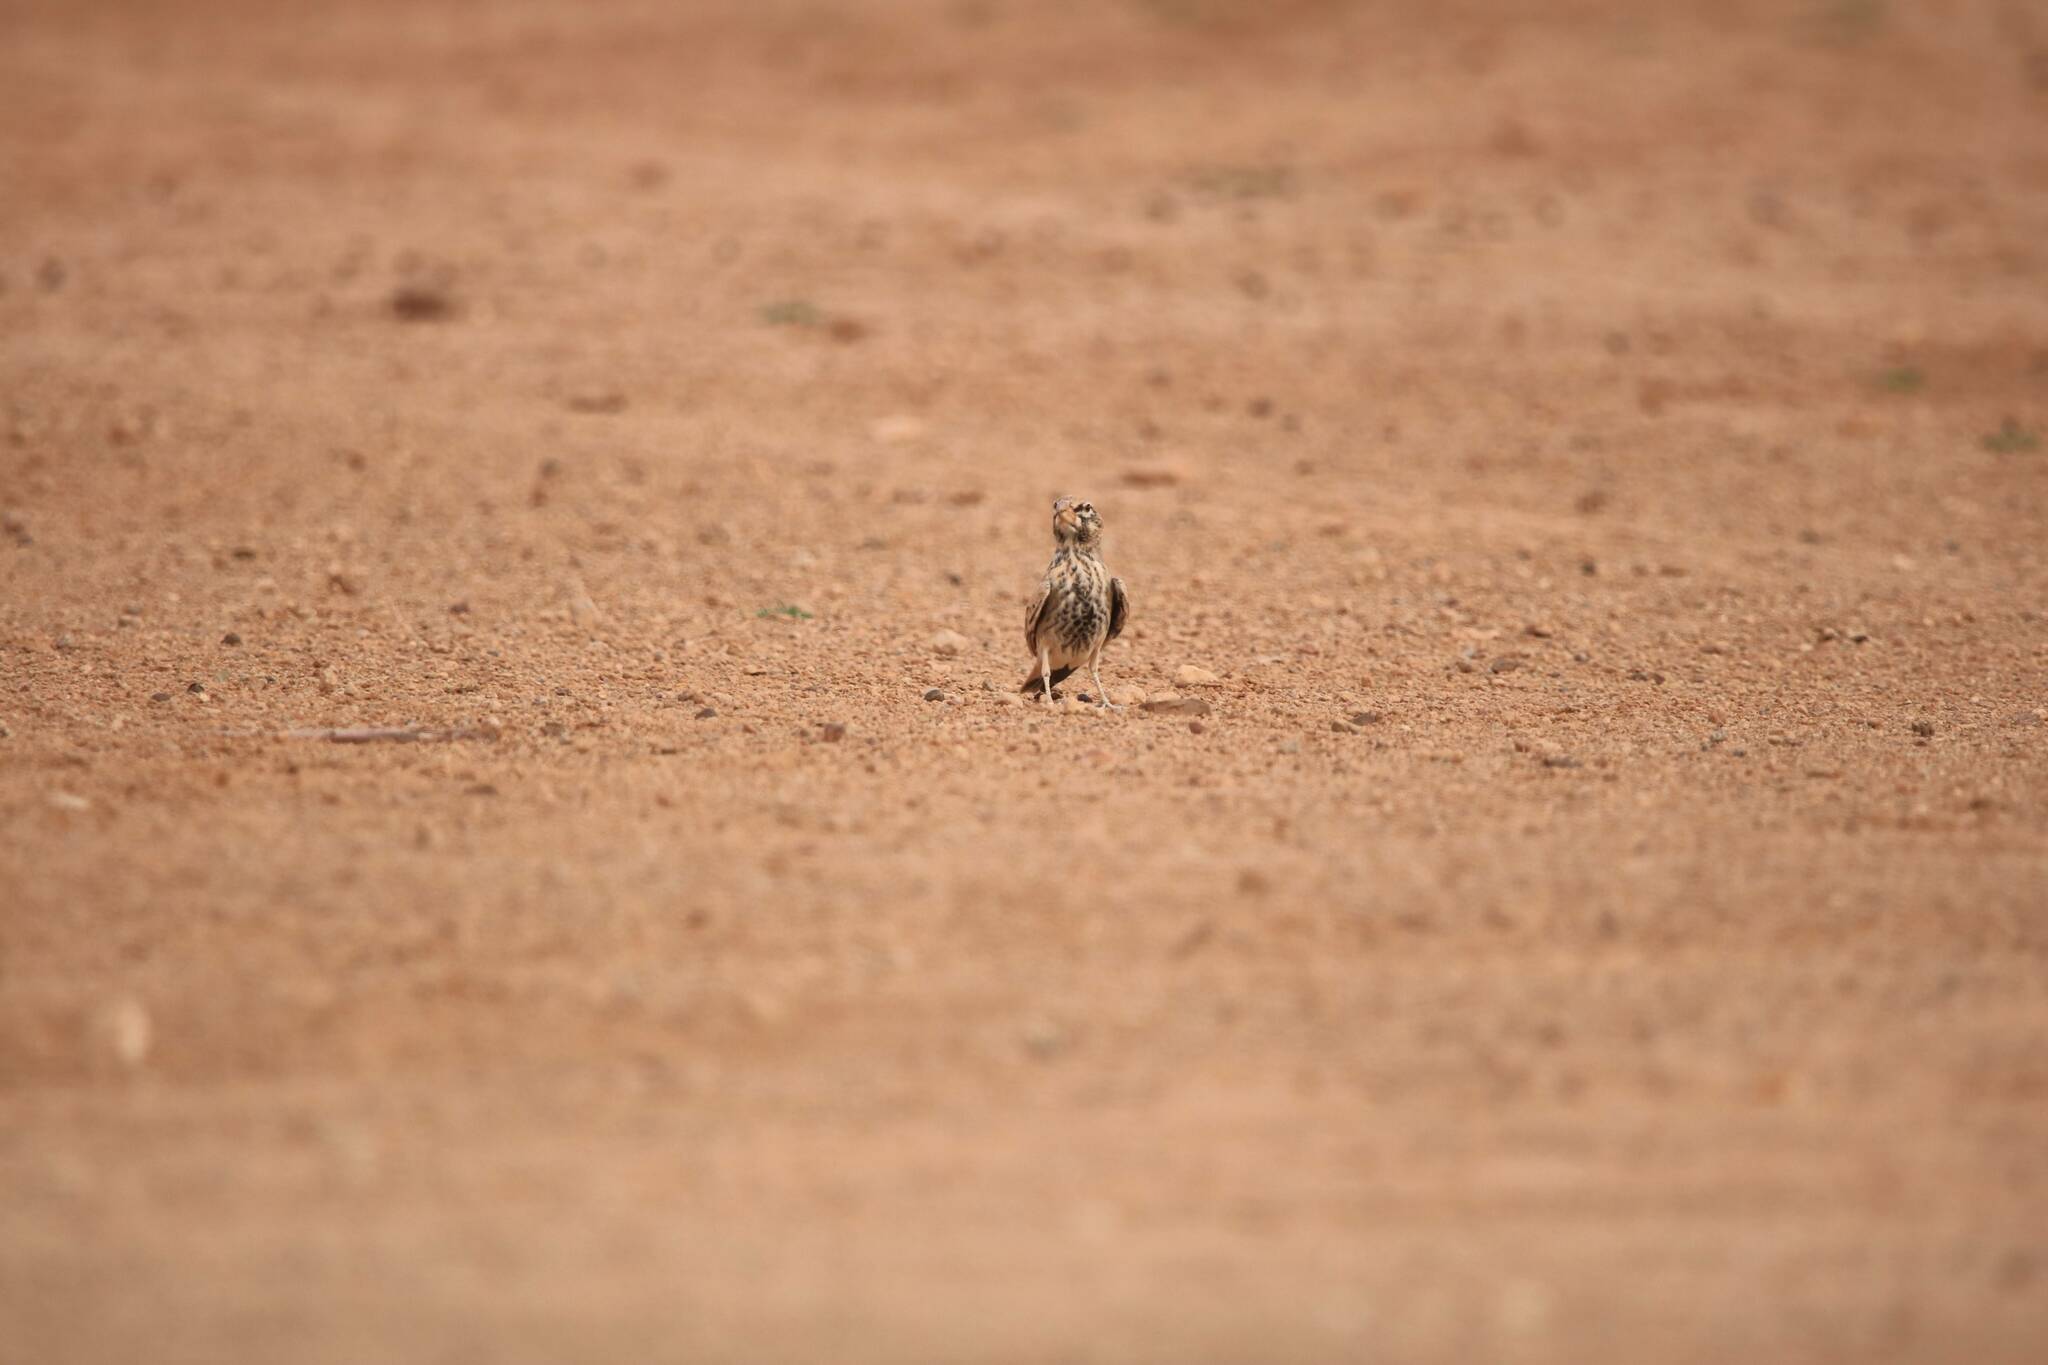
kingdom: Animalia
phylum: Chordata
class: Aves
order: Passeriformes
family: Alaudidae
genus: Ramphocoris
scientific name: Ramphocoris clotbey
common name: Thick-billed lark
